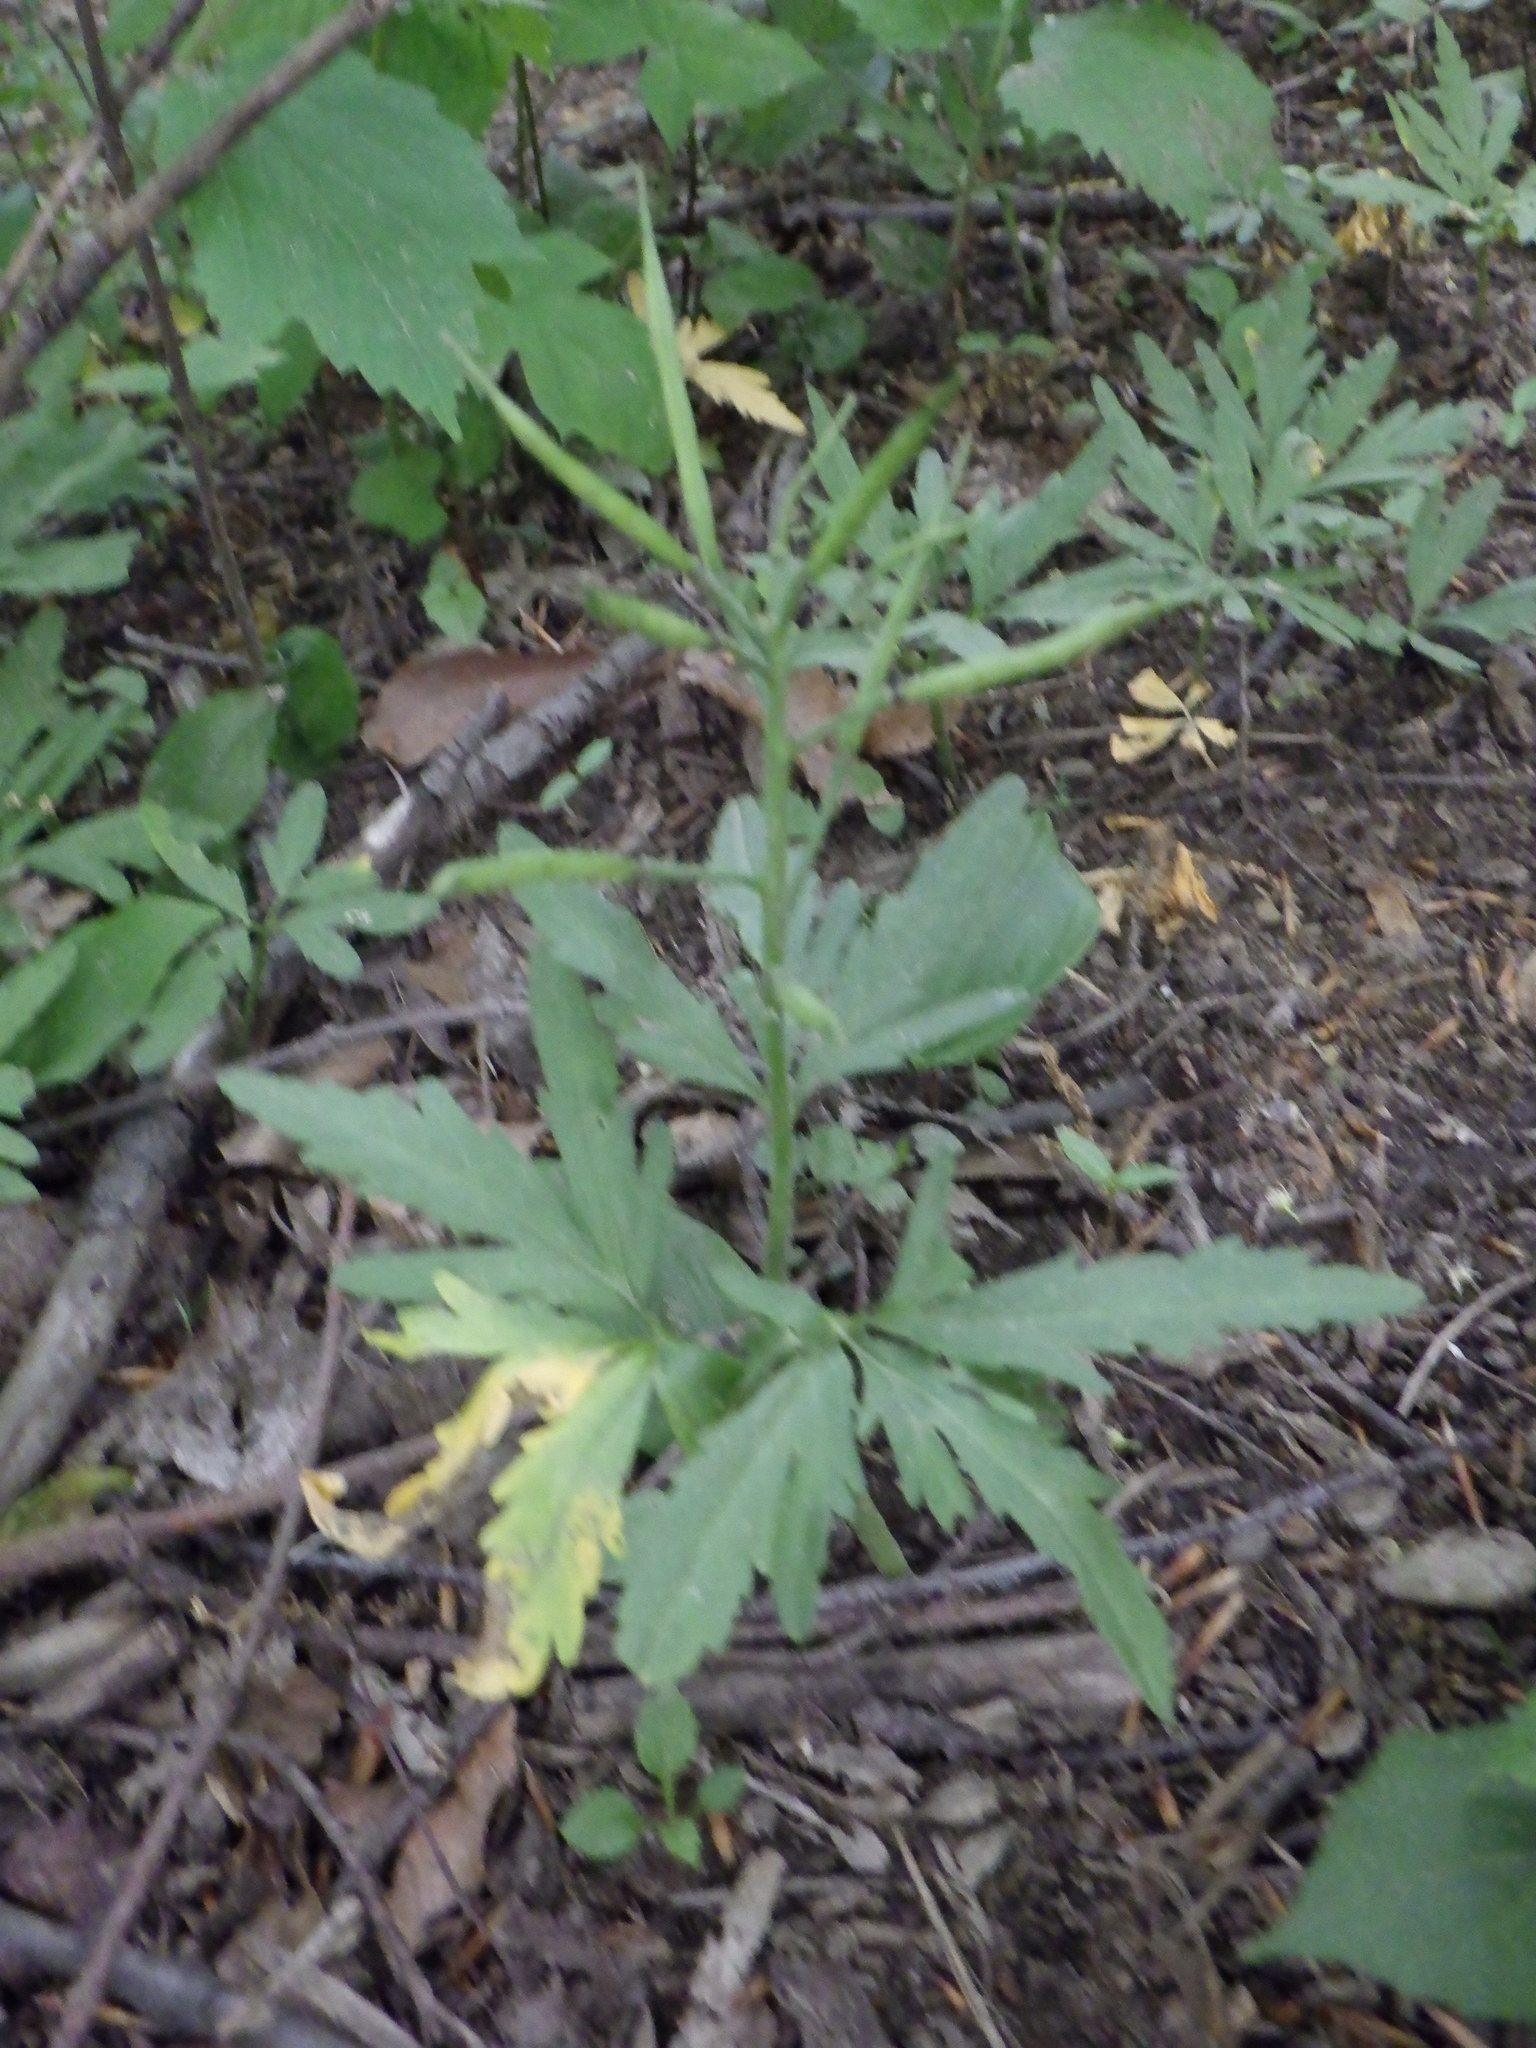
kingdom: Plantae
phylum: Tracheophyta
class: Magnoliopsida
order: Brassicales
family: Brassicaceae
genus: Cardamine
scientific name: Cardamine concatenata
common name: Cut-leaf toothcup
